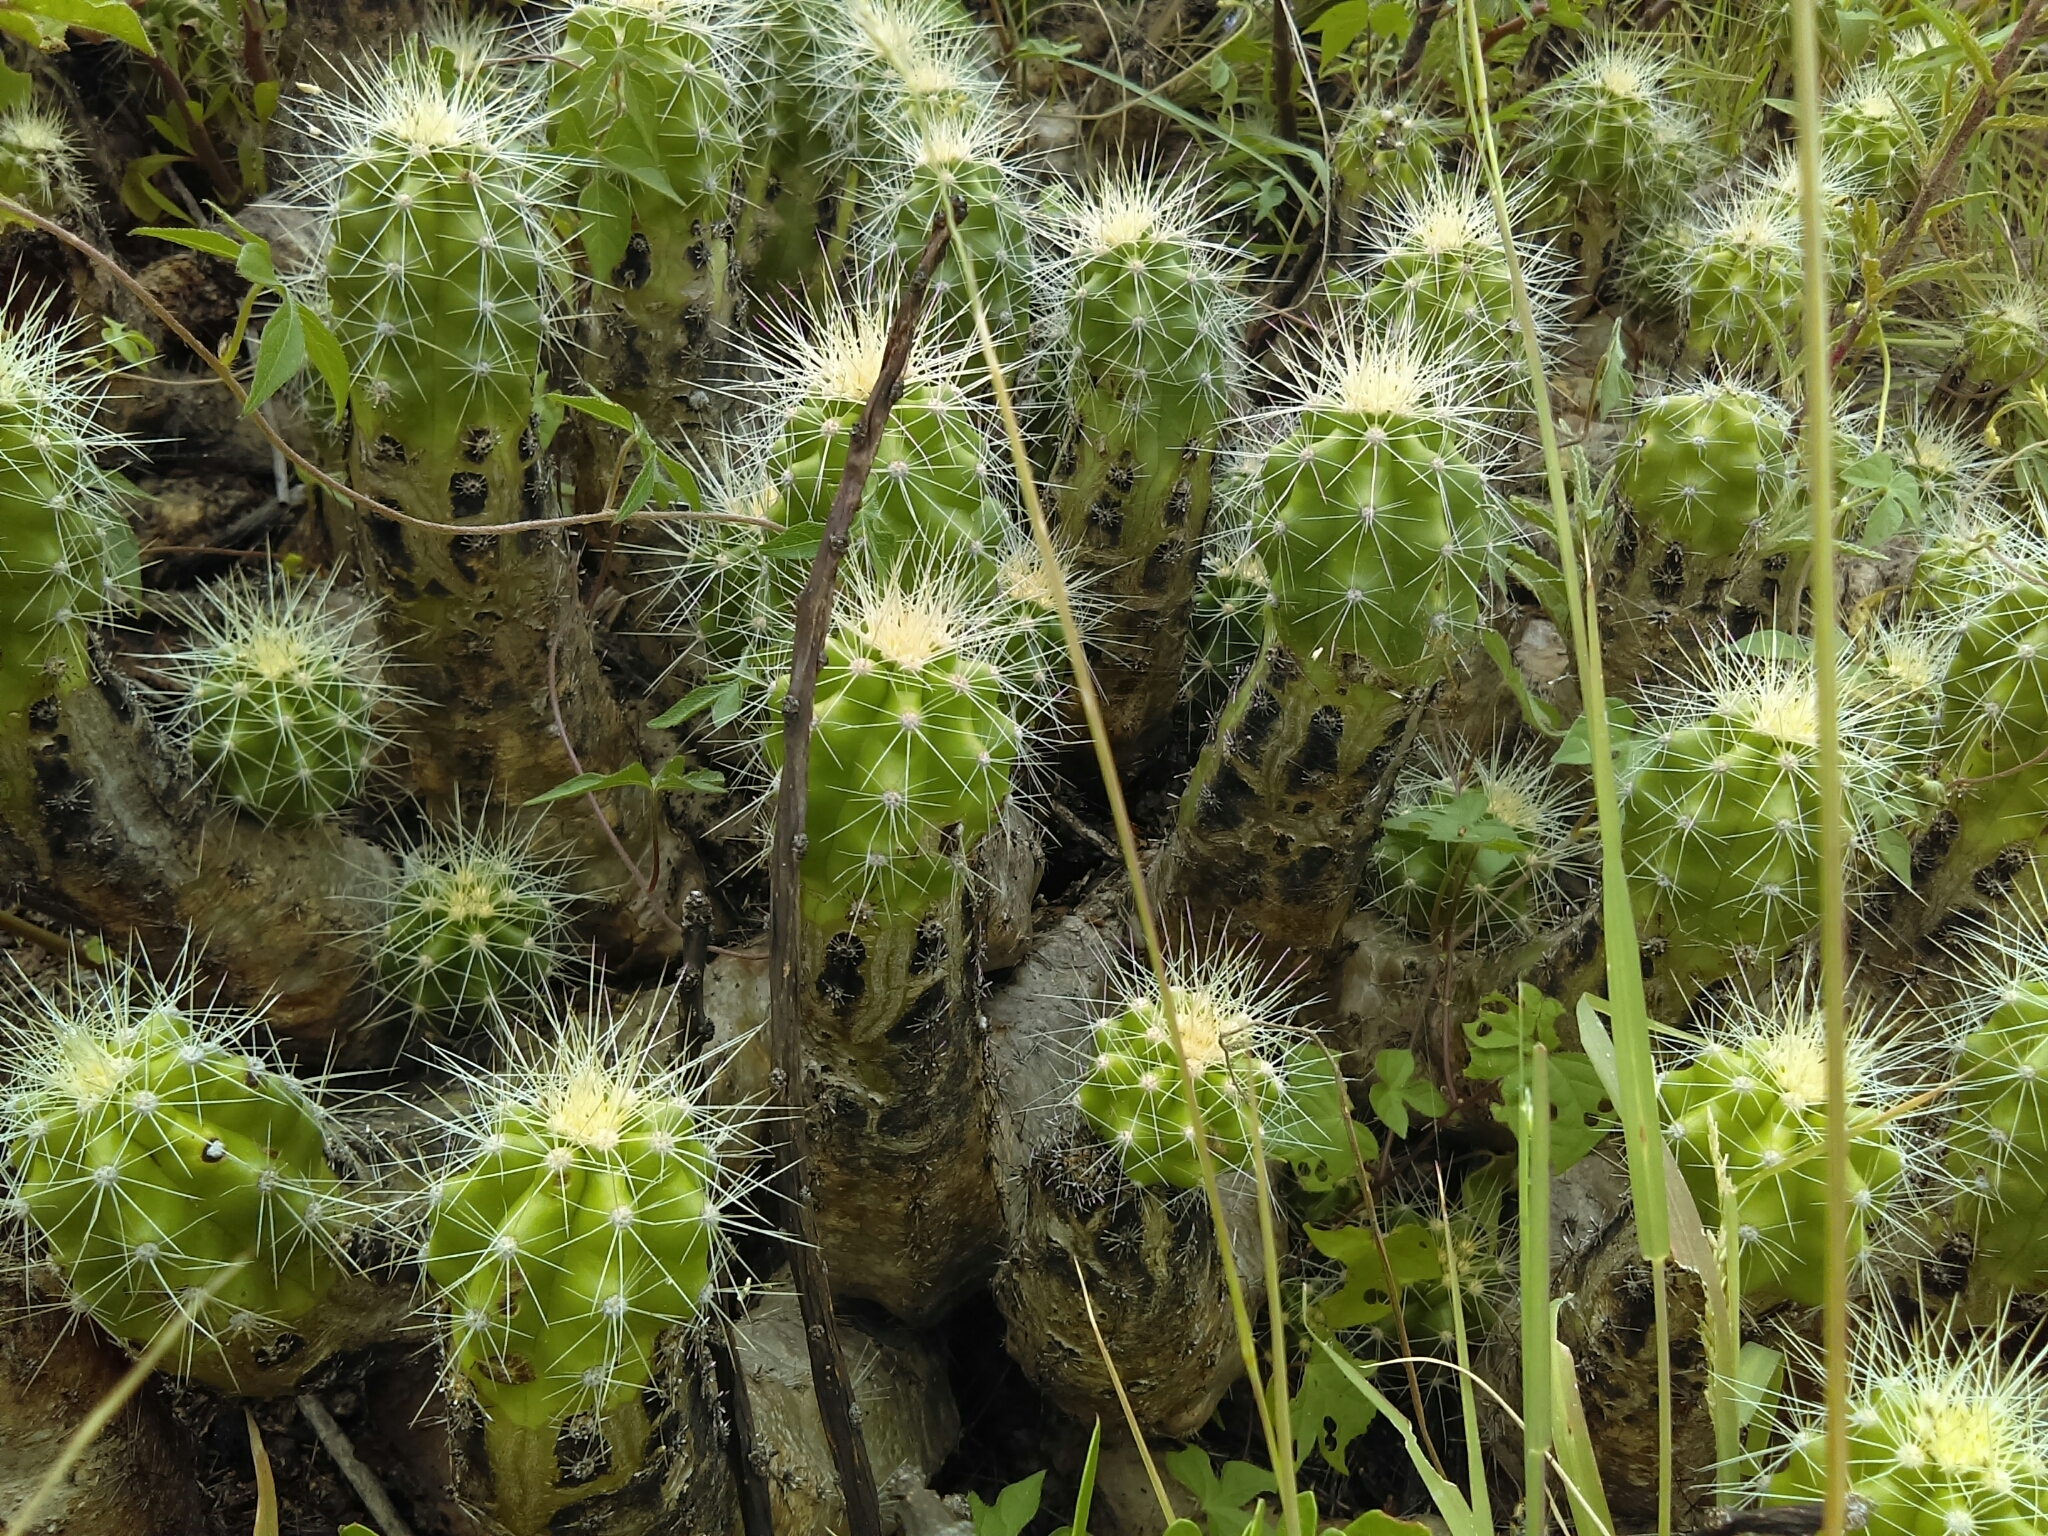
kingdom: Plantae
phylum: Tracheophyta
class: Magnoliopsida
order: Caryophyllales
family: Cactaceae
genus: Echinocereus
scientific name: Echinocereus cinerascens
